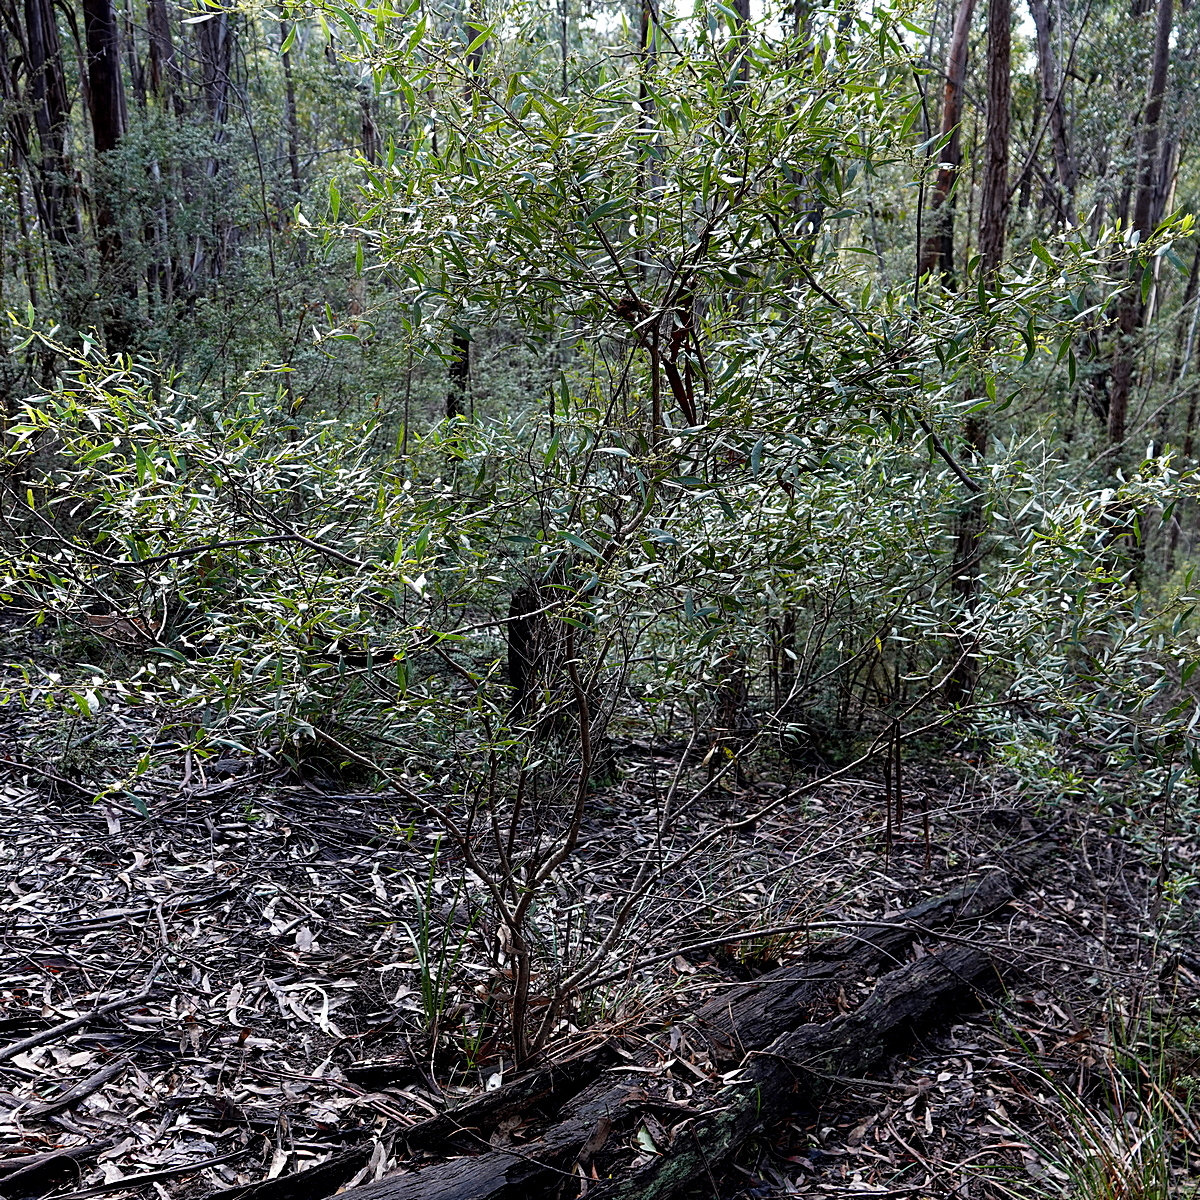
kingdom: Plantae
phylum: Tracheophyta
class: Magnoliopsida
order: Fabales
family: Fabaceae
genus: Acacia
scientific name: Acacia verniciflua
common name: Varnish wattle
